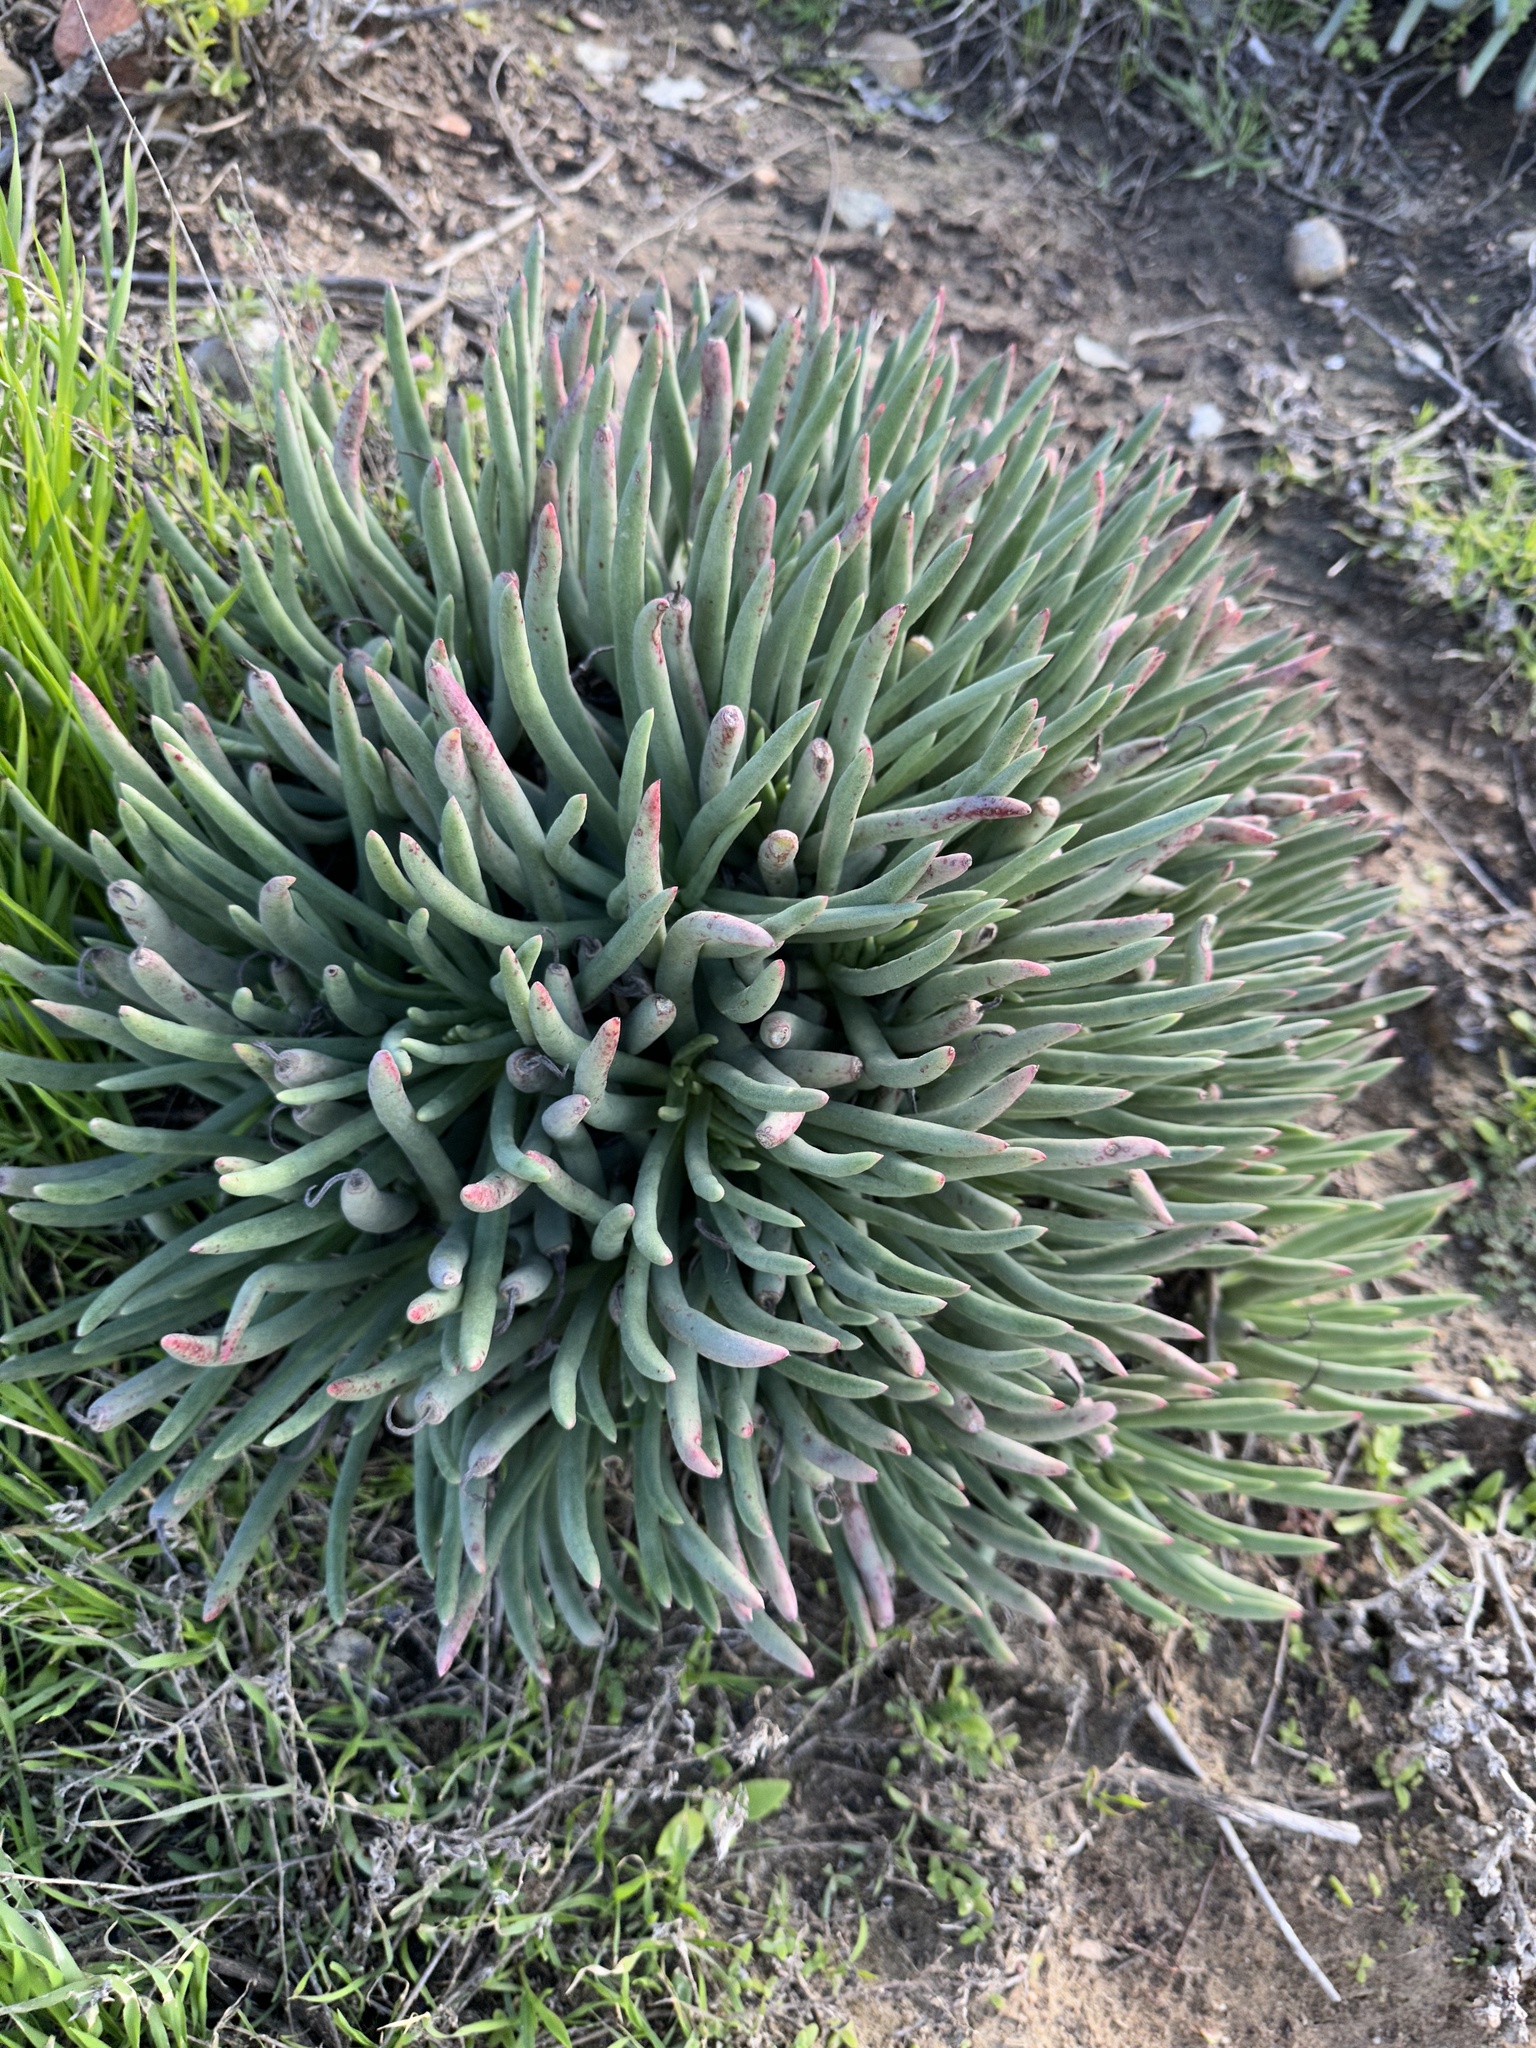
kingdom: Plantae
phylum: Tracheophyta
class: Magnoliopsida
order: Saxifragales
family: Crassulaceae
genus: Dudleya
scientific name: Dudleya edulis
